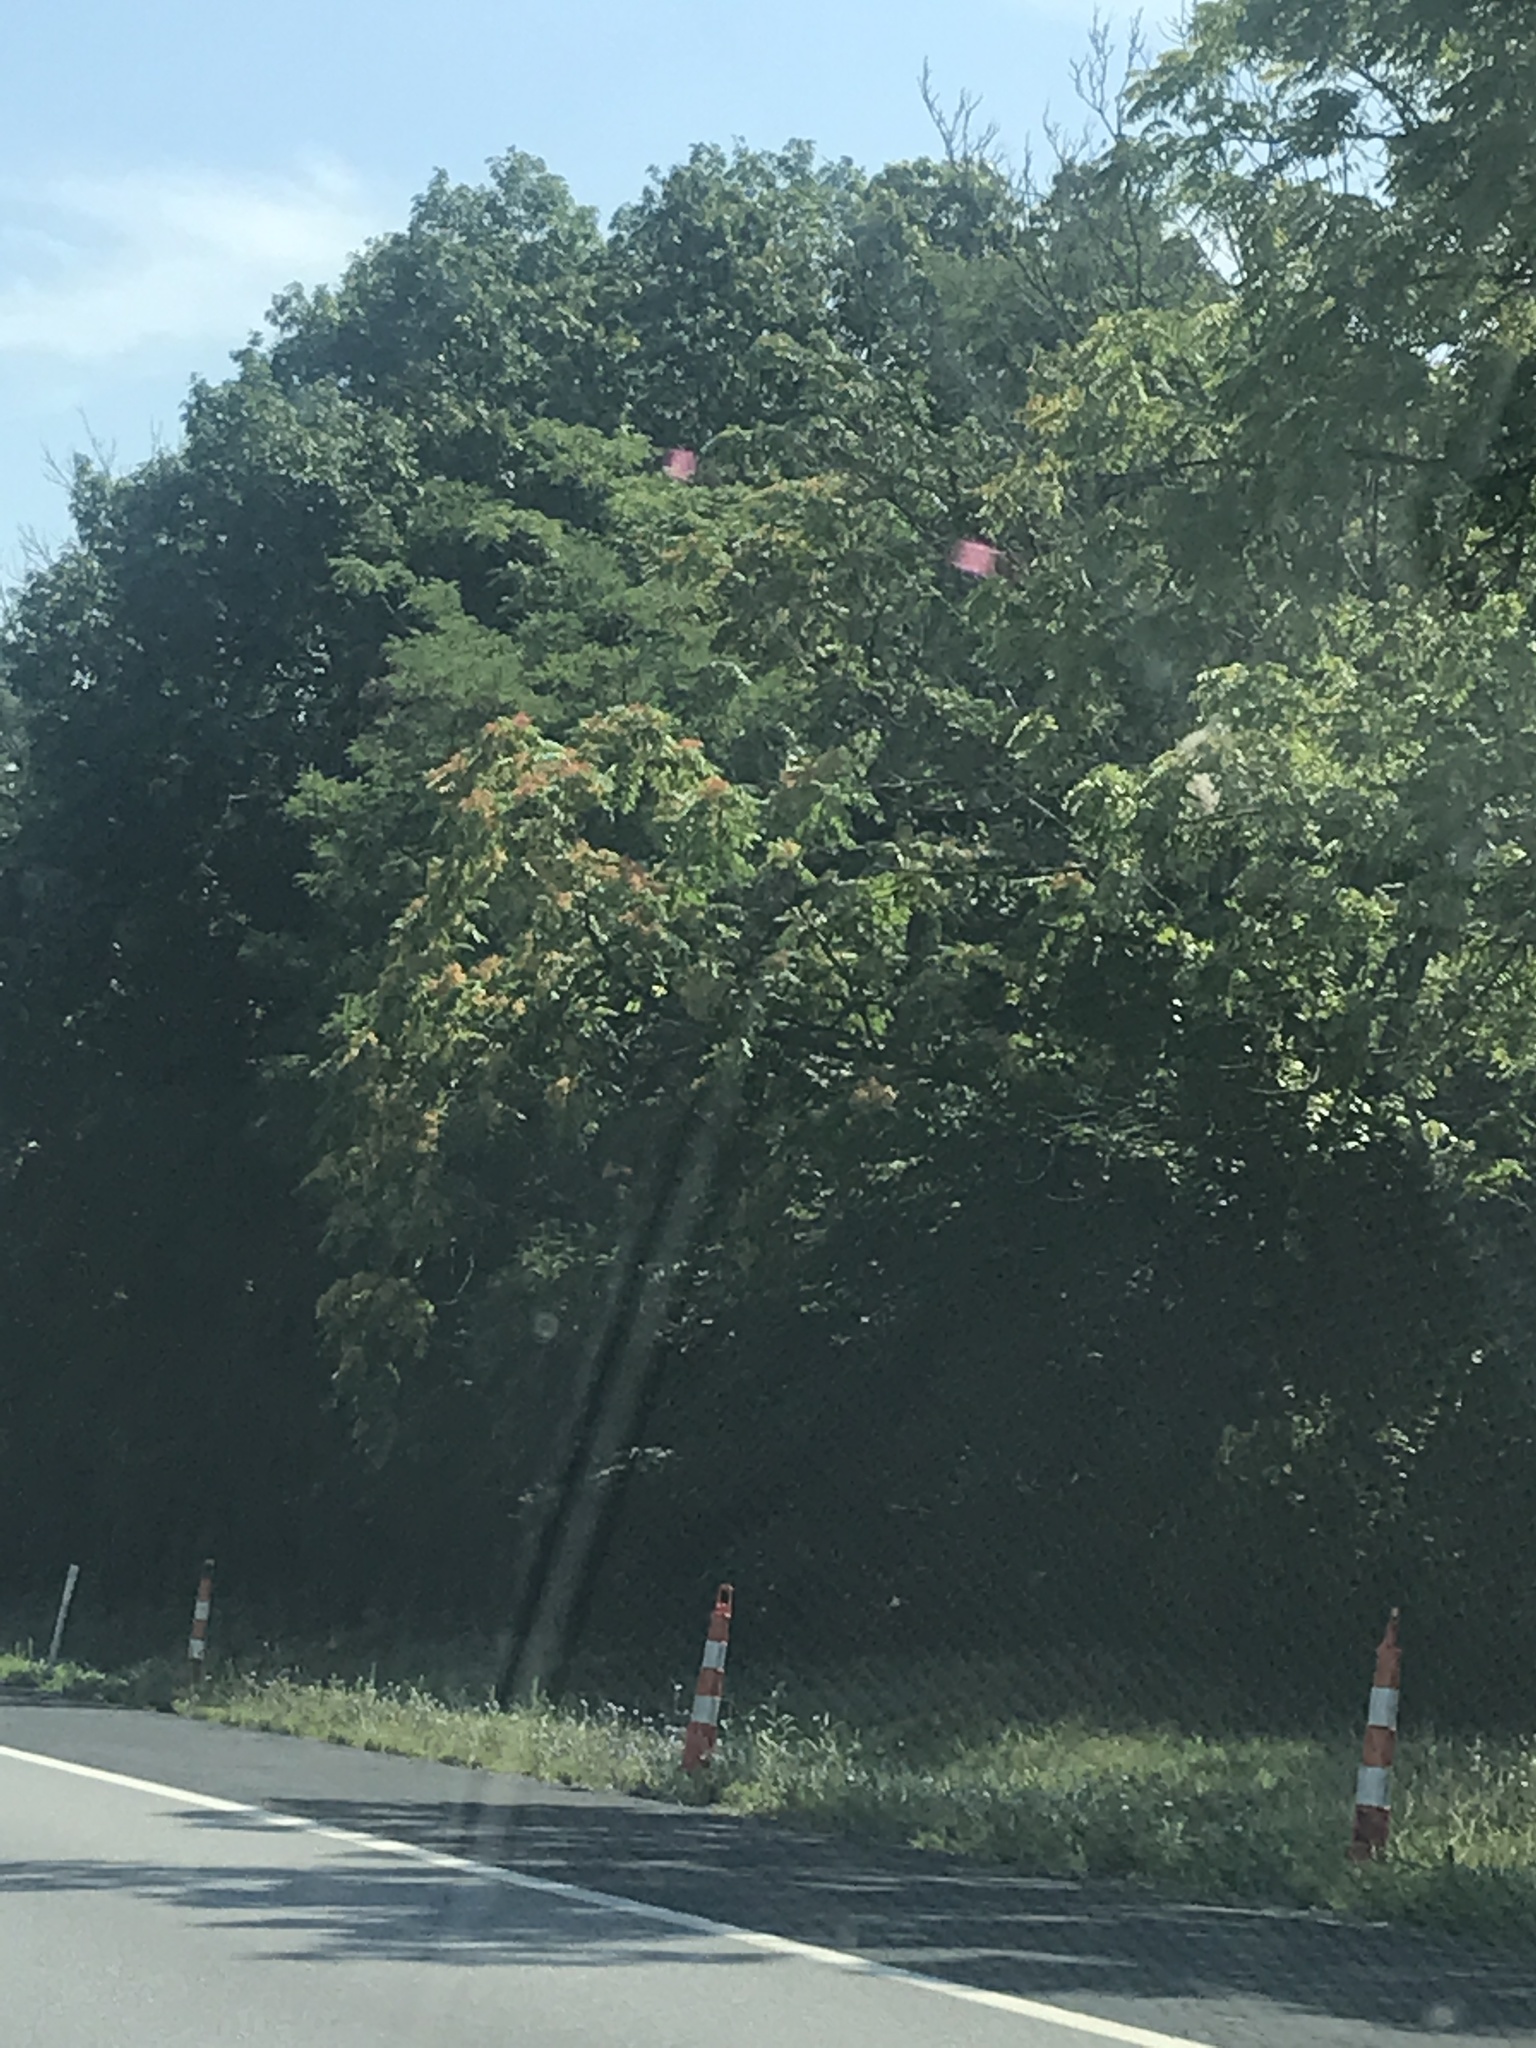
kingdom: Plantae
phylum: Tracheophyta
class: Magnoliopsida
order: Sapindales
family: Simaroubaceae
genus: Ailanthus
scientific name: Ailanthus altissima
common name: Tree-of-heaven
